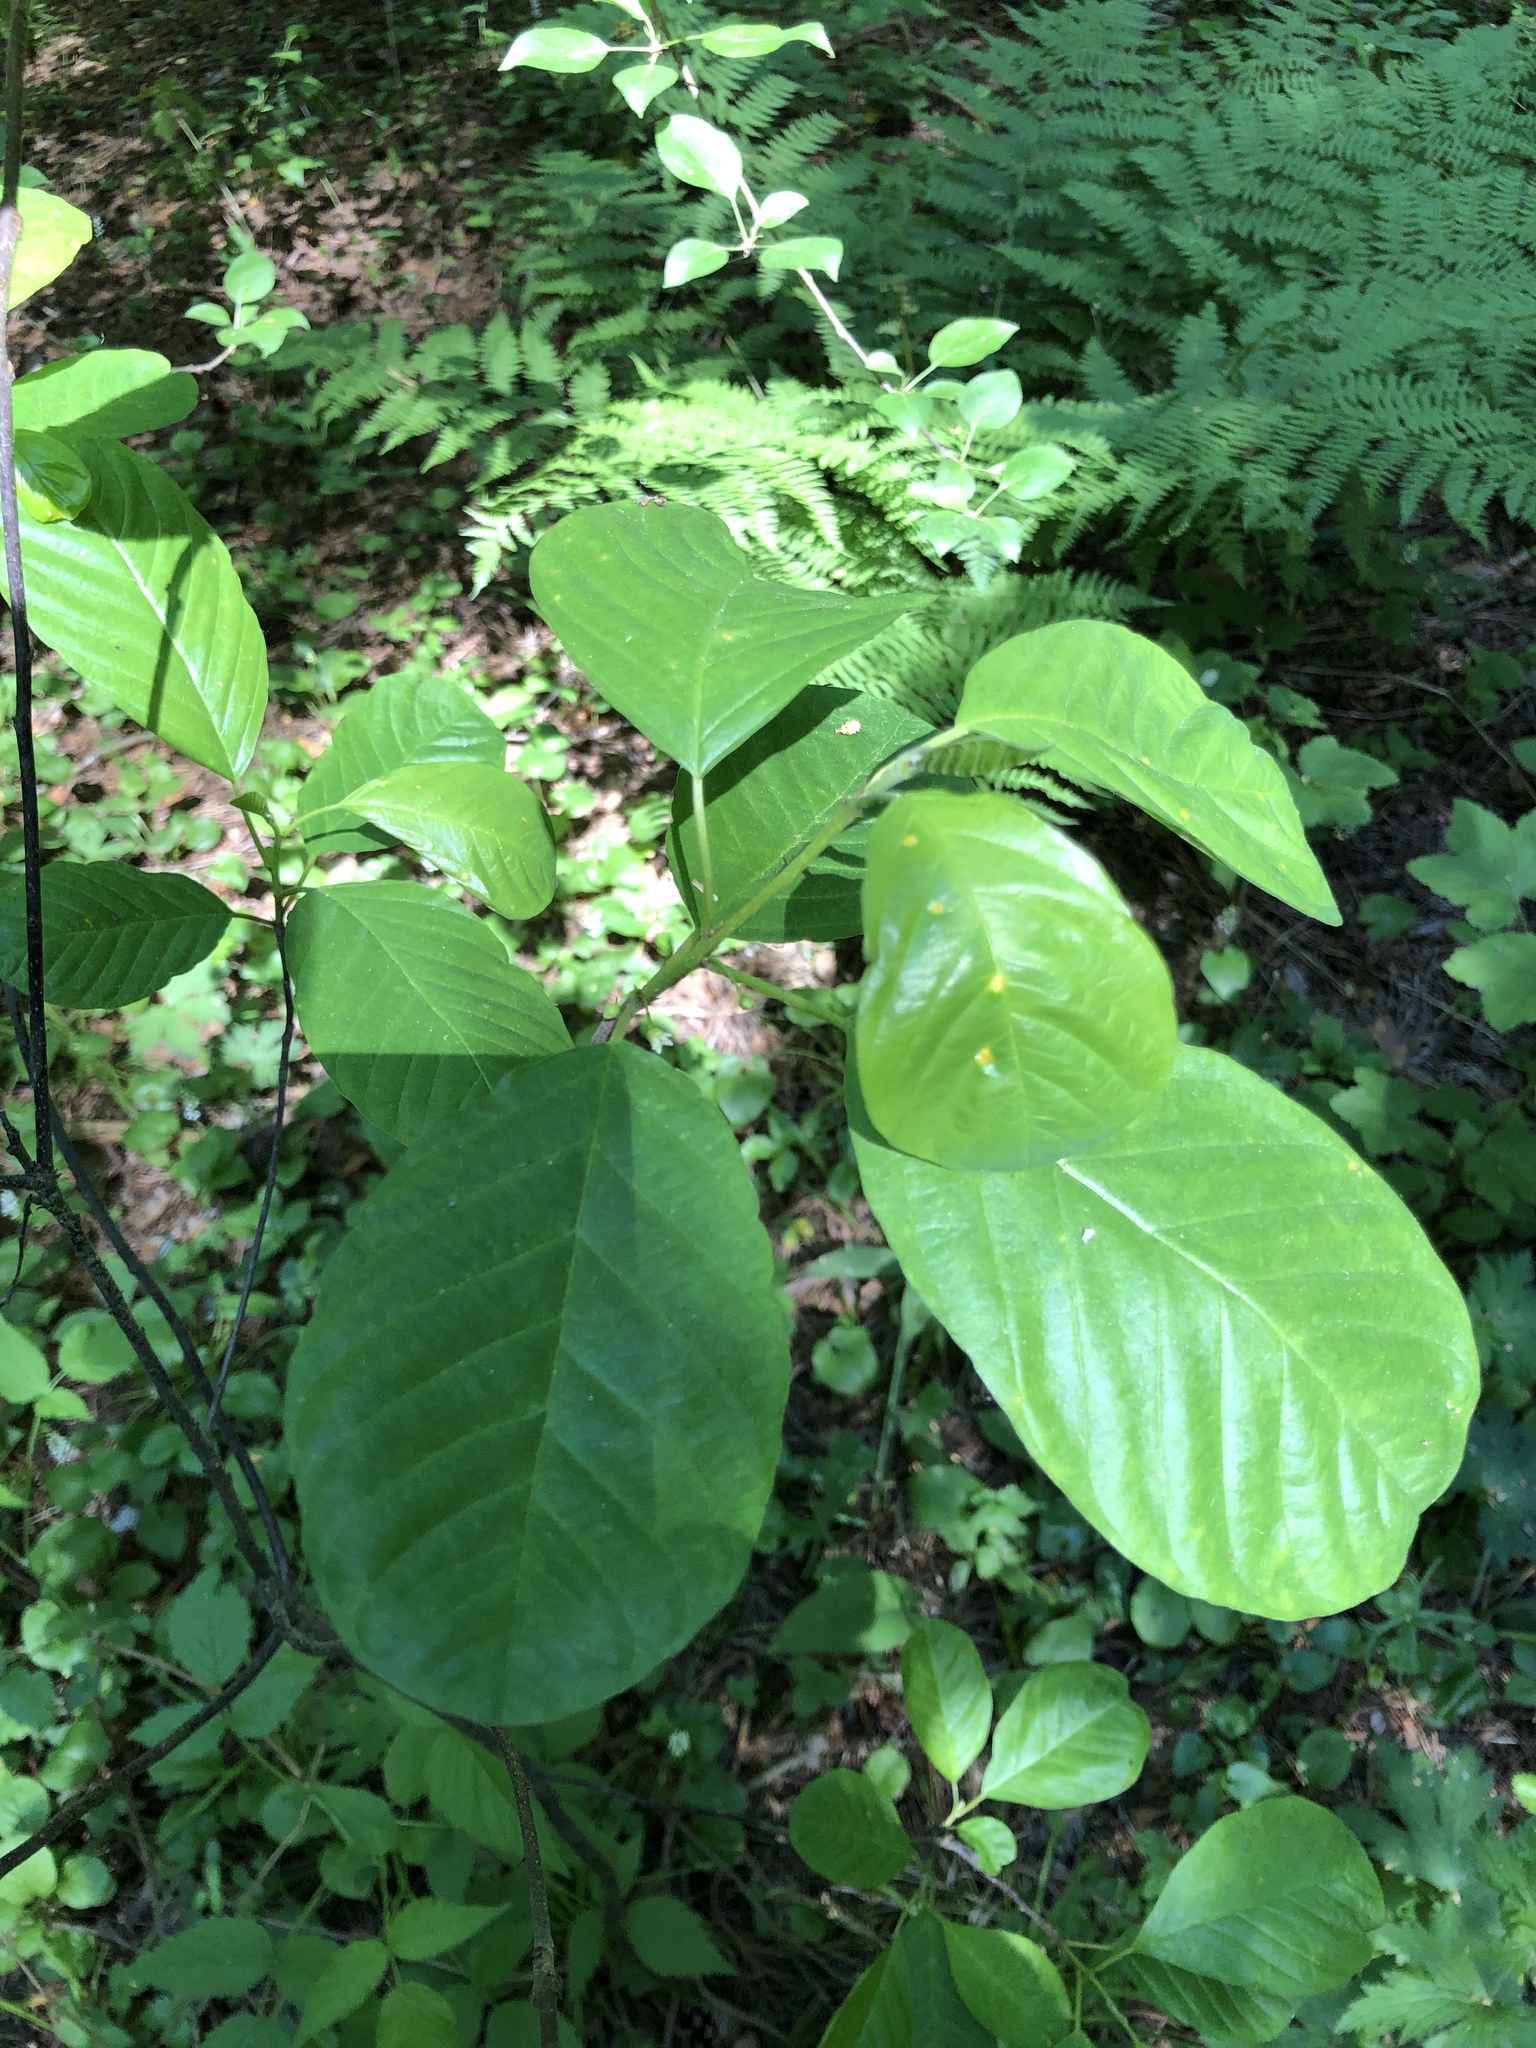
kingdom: Plantae
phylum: Tracheophyta
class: Magnoliopsida
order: Rosales
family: Rhamnaceae
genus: Frangula
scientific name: Frangula alnus
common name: Alder buckthorn
